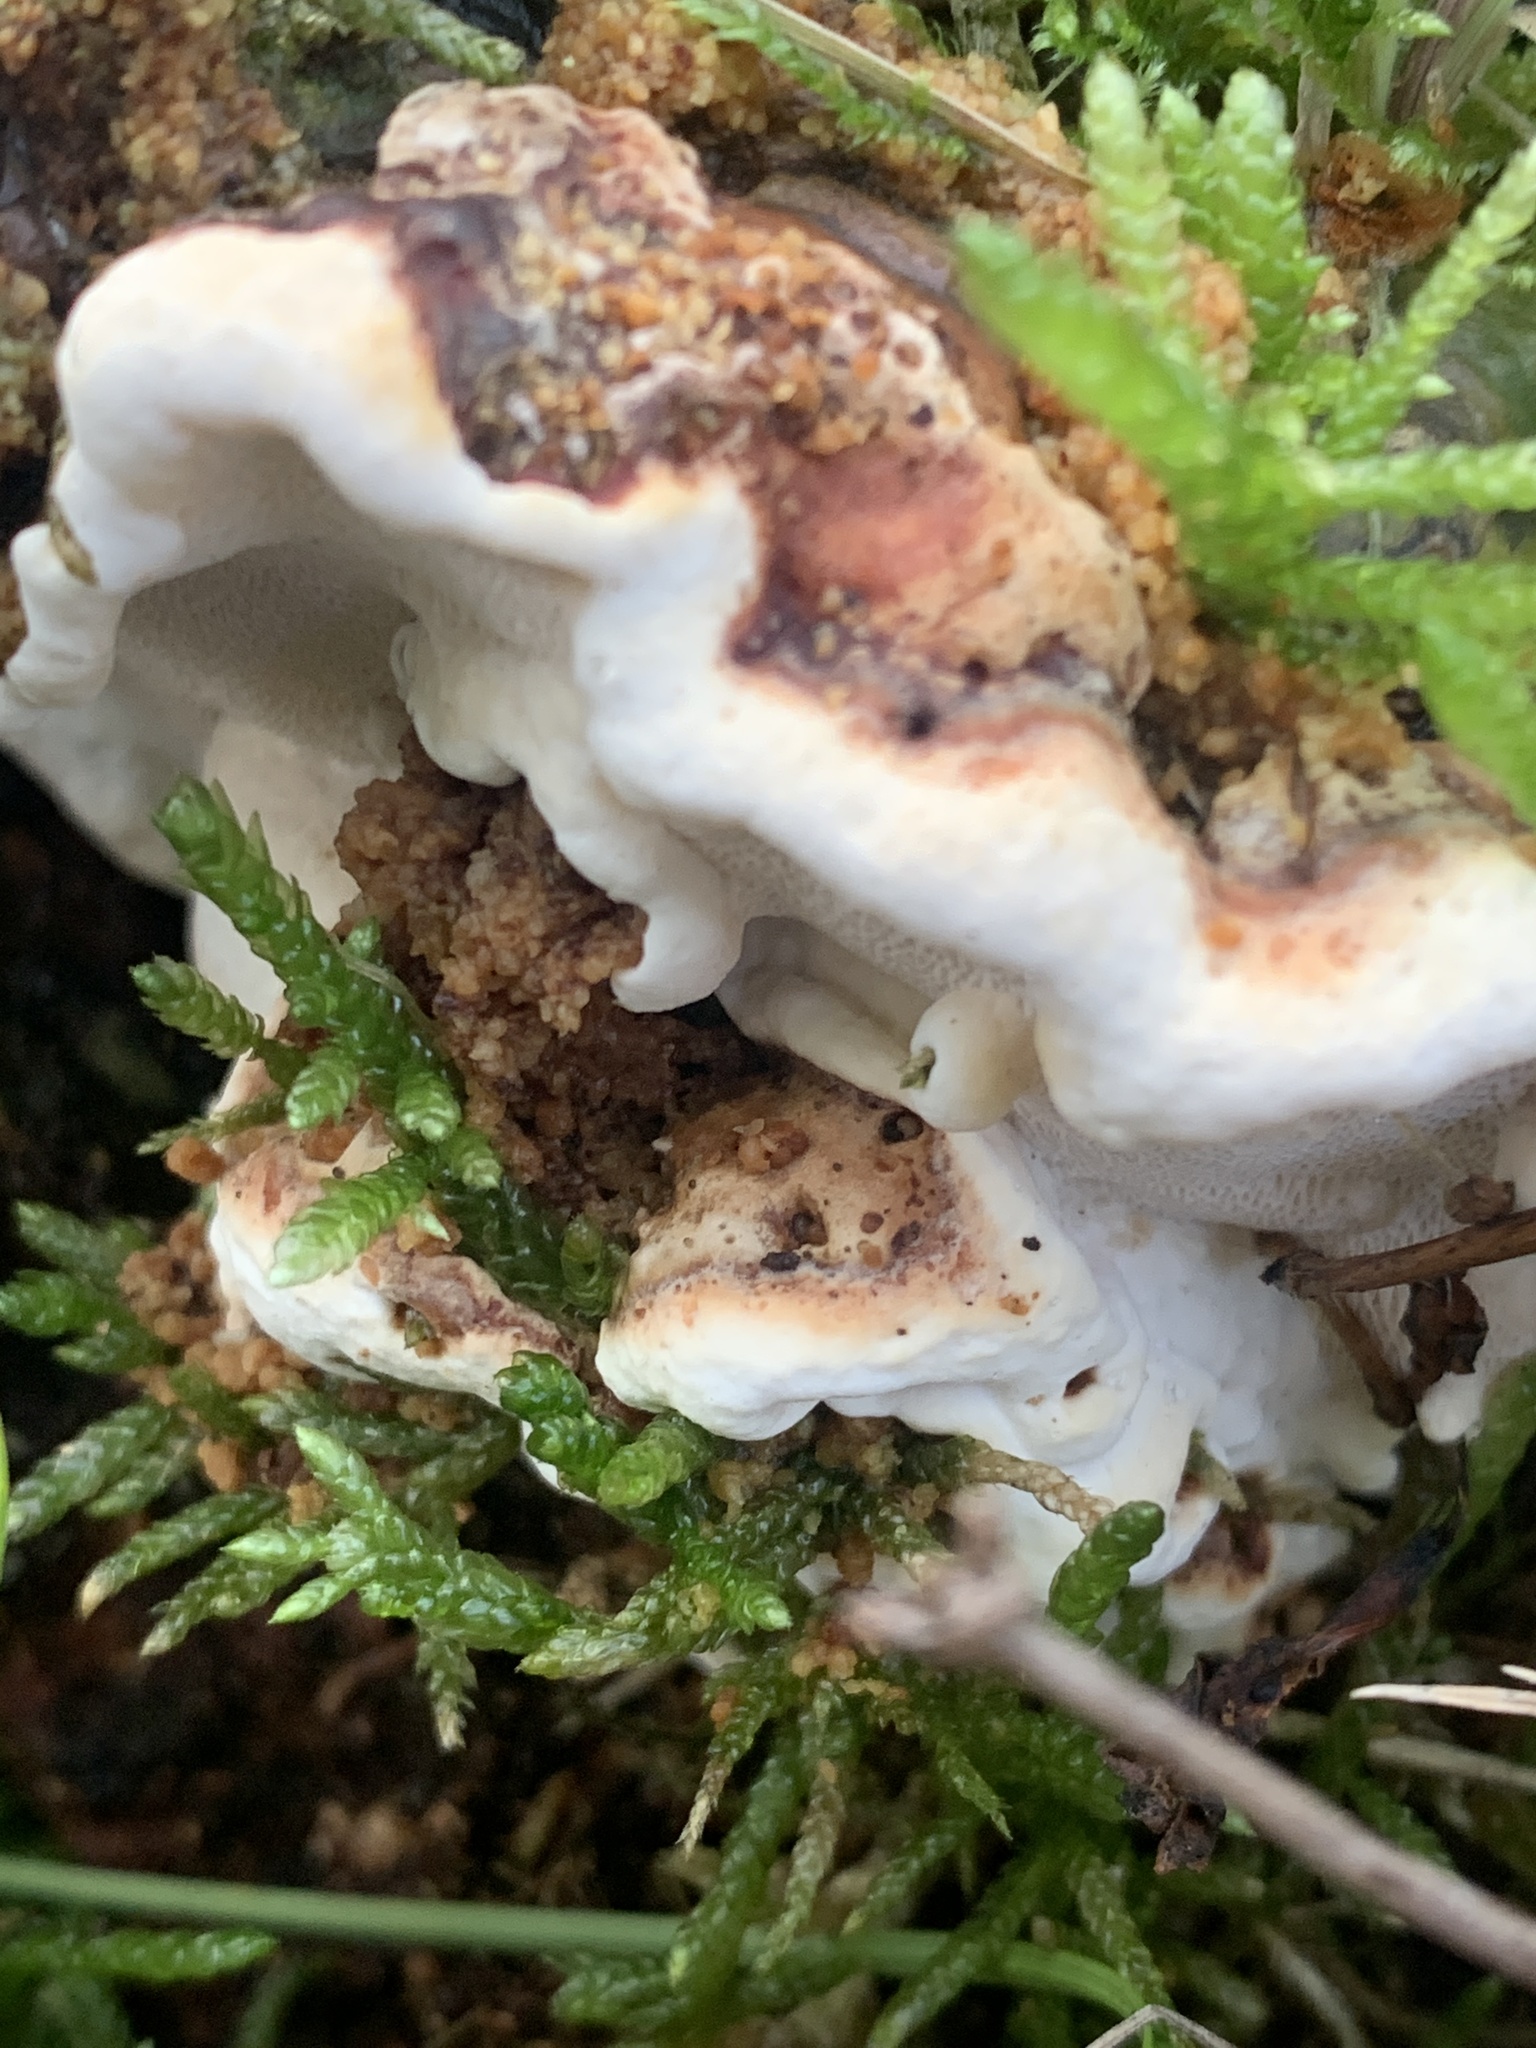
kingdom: Fungi
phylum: Basidiomycota
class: Agaricomycetes
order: Polyporales
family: Fomitopsidaceae
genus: Fomitopsis
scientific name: Fomitopsis pinicola
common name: Red-belted bracket
